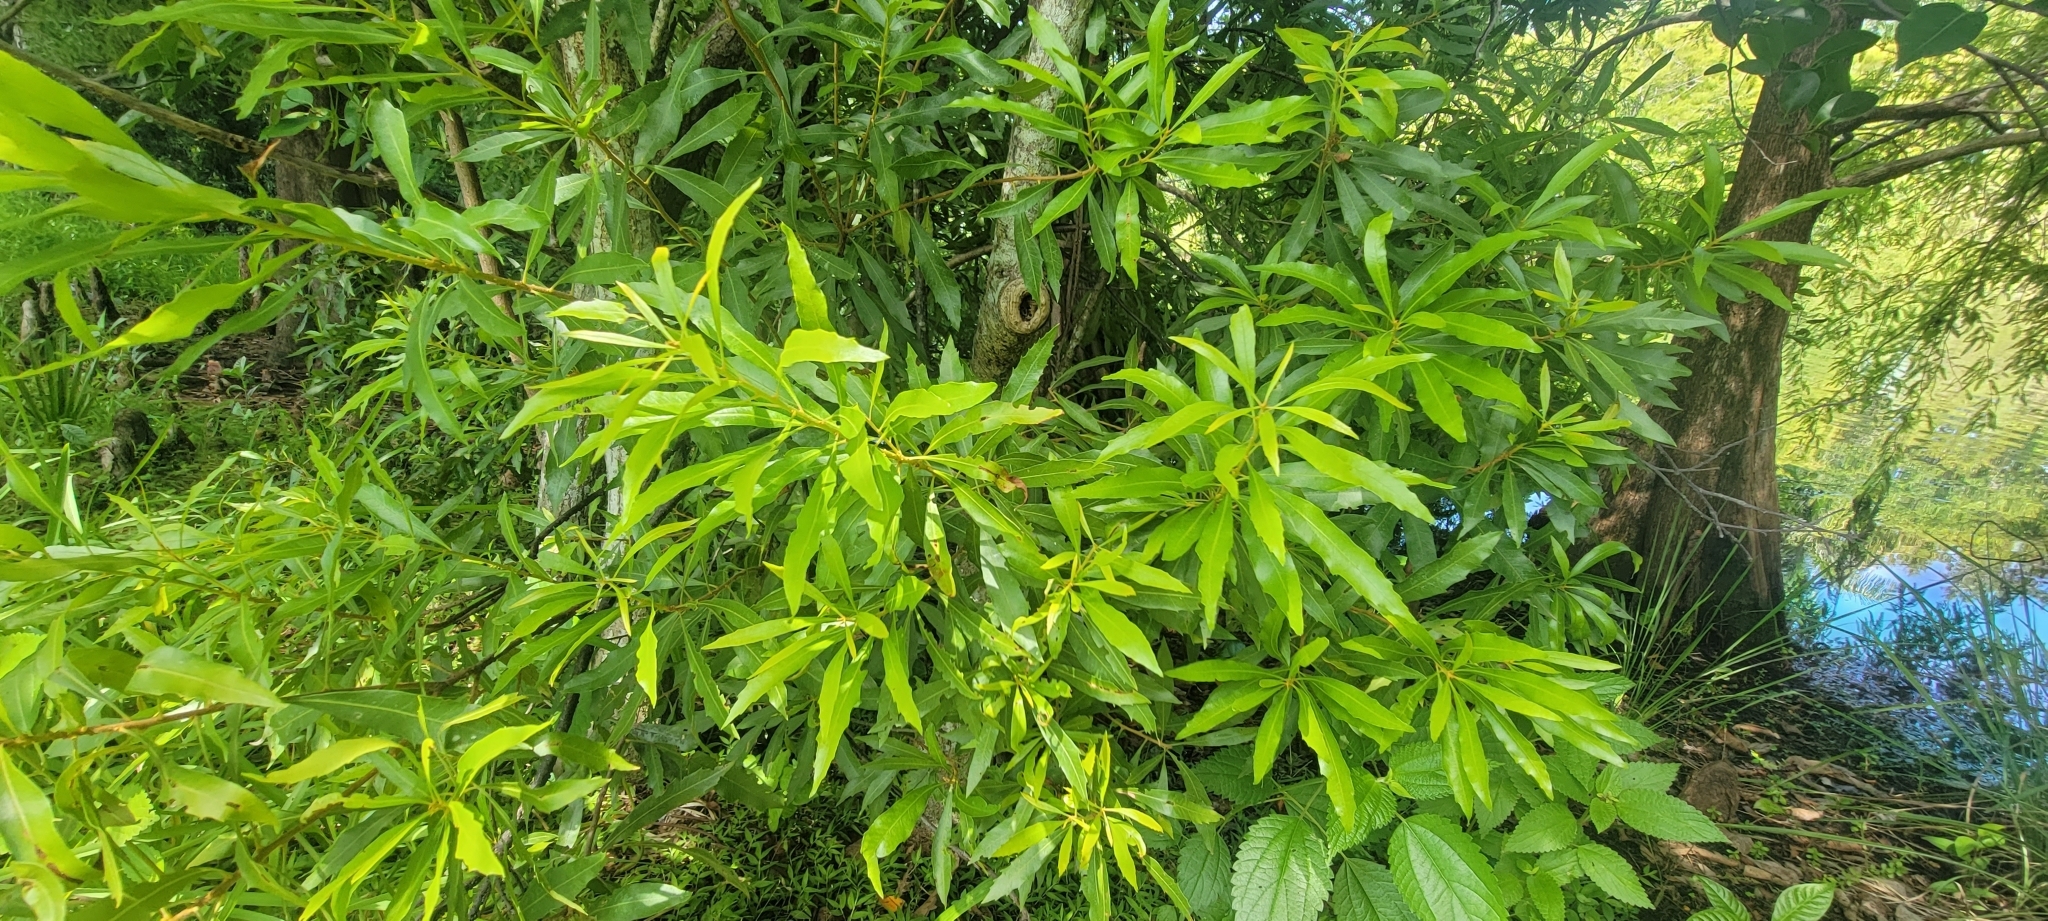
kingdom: Plantae
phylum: Tracheophyta
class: Magnoliopsida
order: Fagales
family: Myricaceae
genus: Morella
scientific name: Morella cerifera
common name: Wax myrtle
